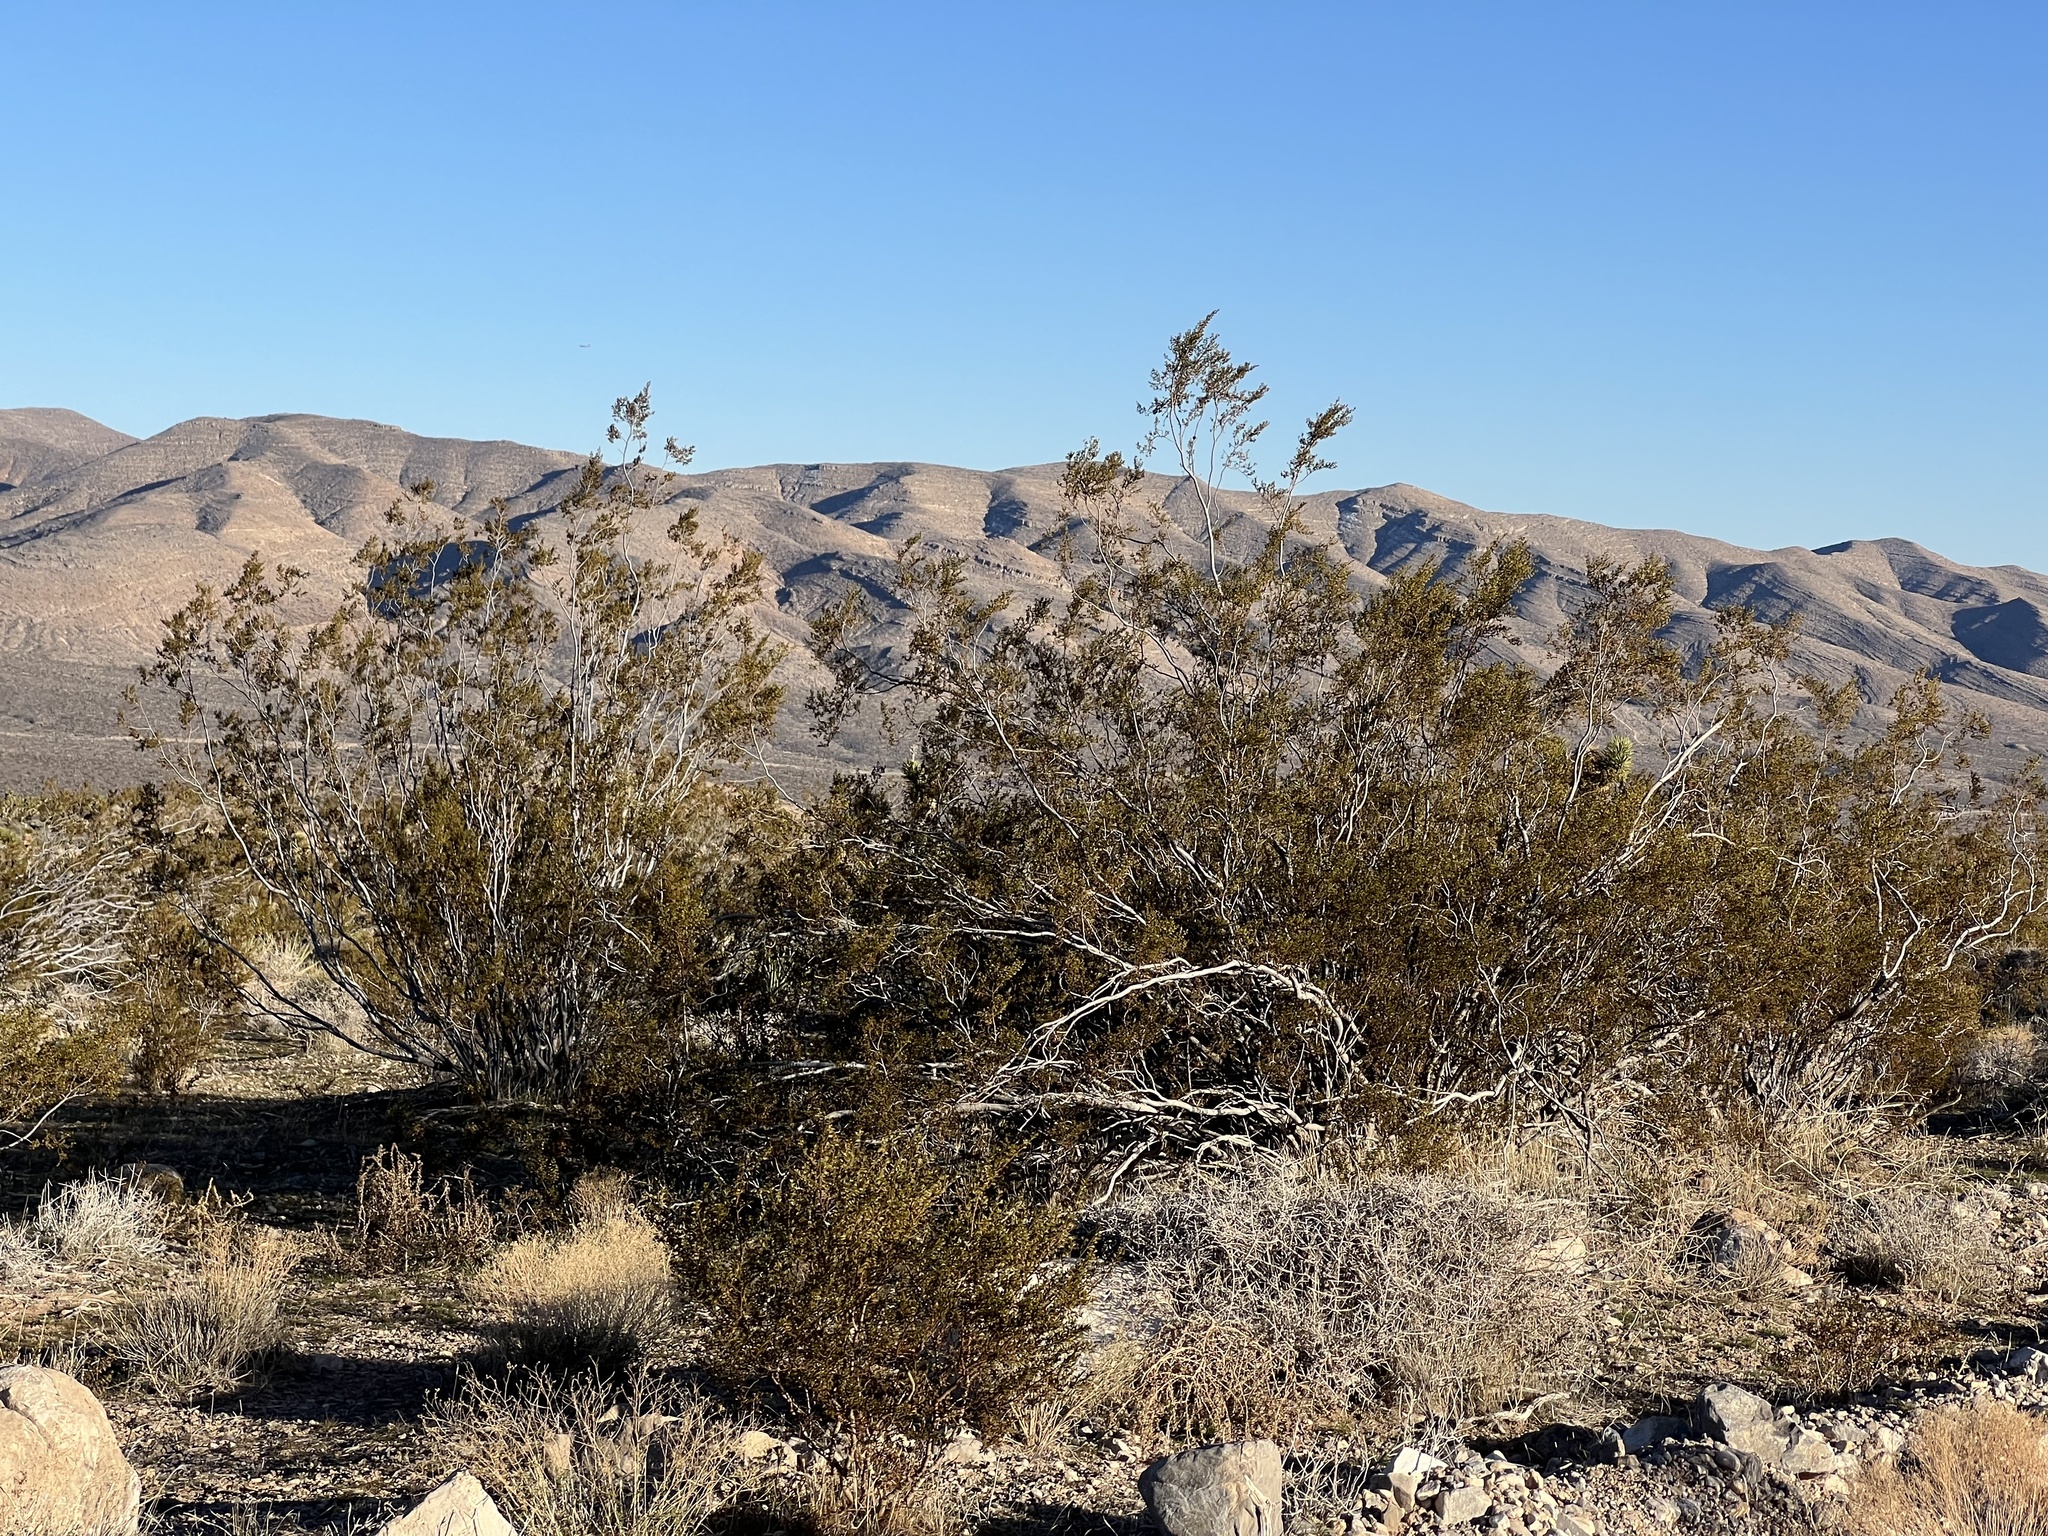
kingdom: Plantae
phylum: Tracheophyta
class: Magnoliopsida
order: Zygophyllales
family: Zygophyllaceae
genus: Larrea
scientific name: Larrea tridentata
